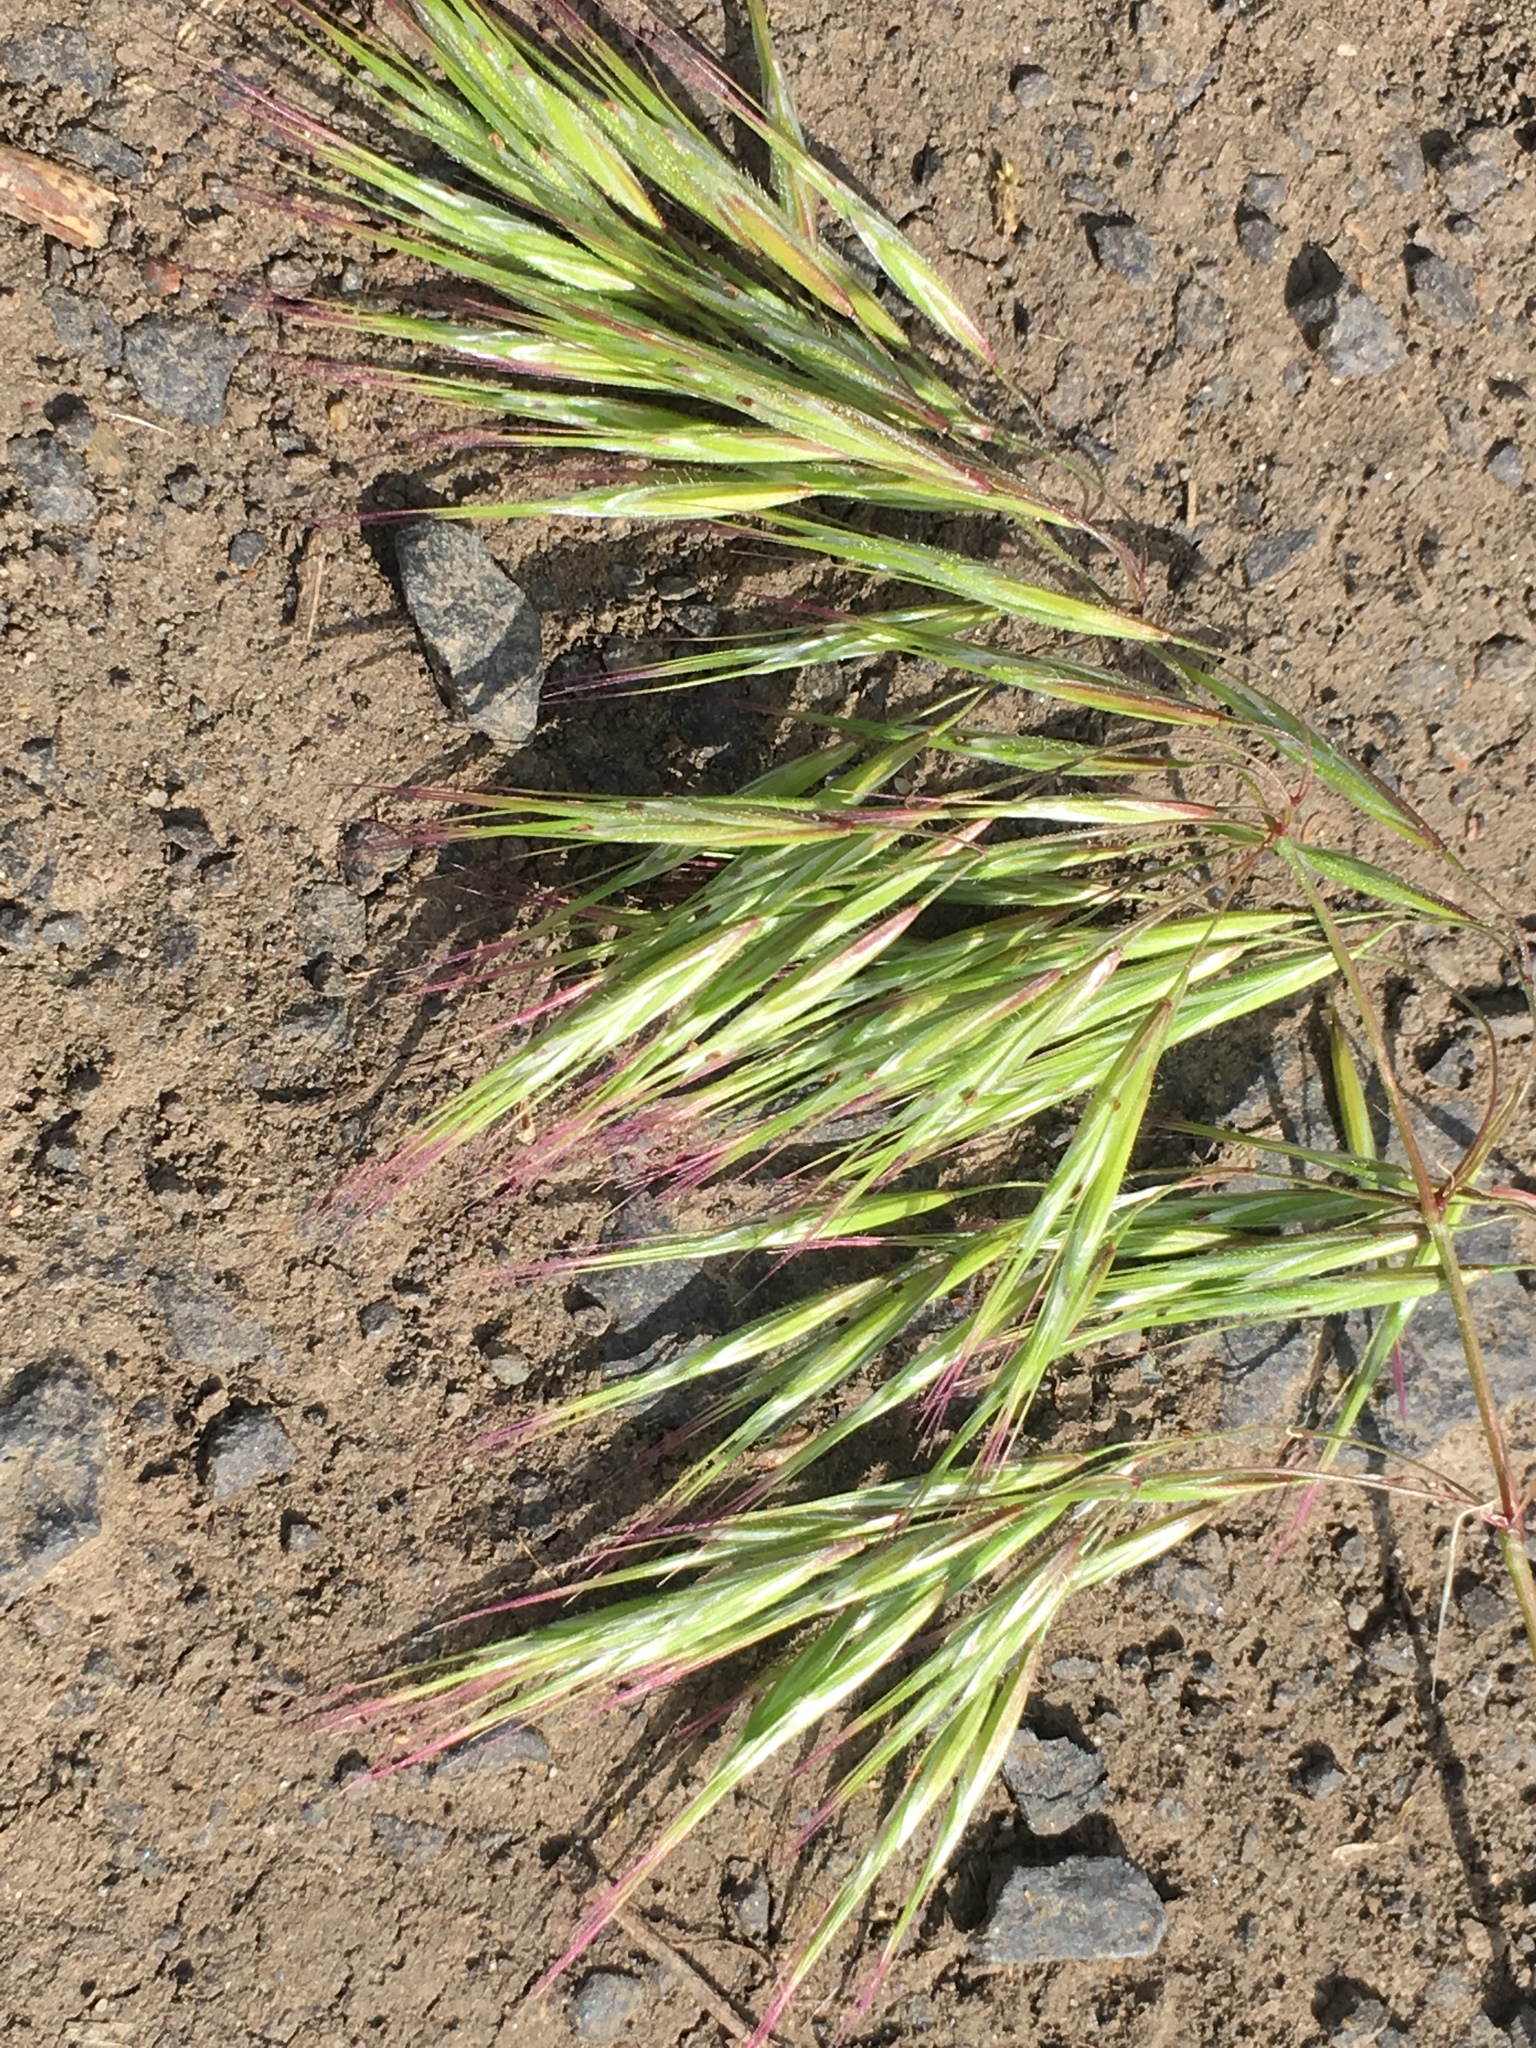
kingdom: Plantae
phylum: Tracheophyta
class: Liliopsida
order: Poales
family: Poaceae
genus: Bromus
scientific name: Bromus tectorum
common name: Cheatgrass
